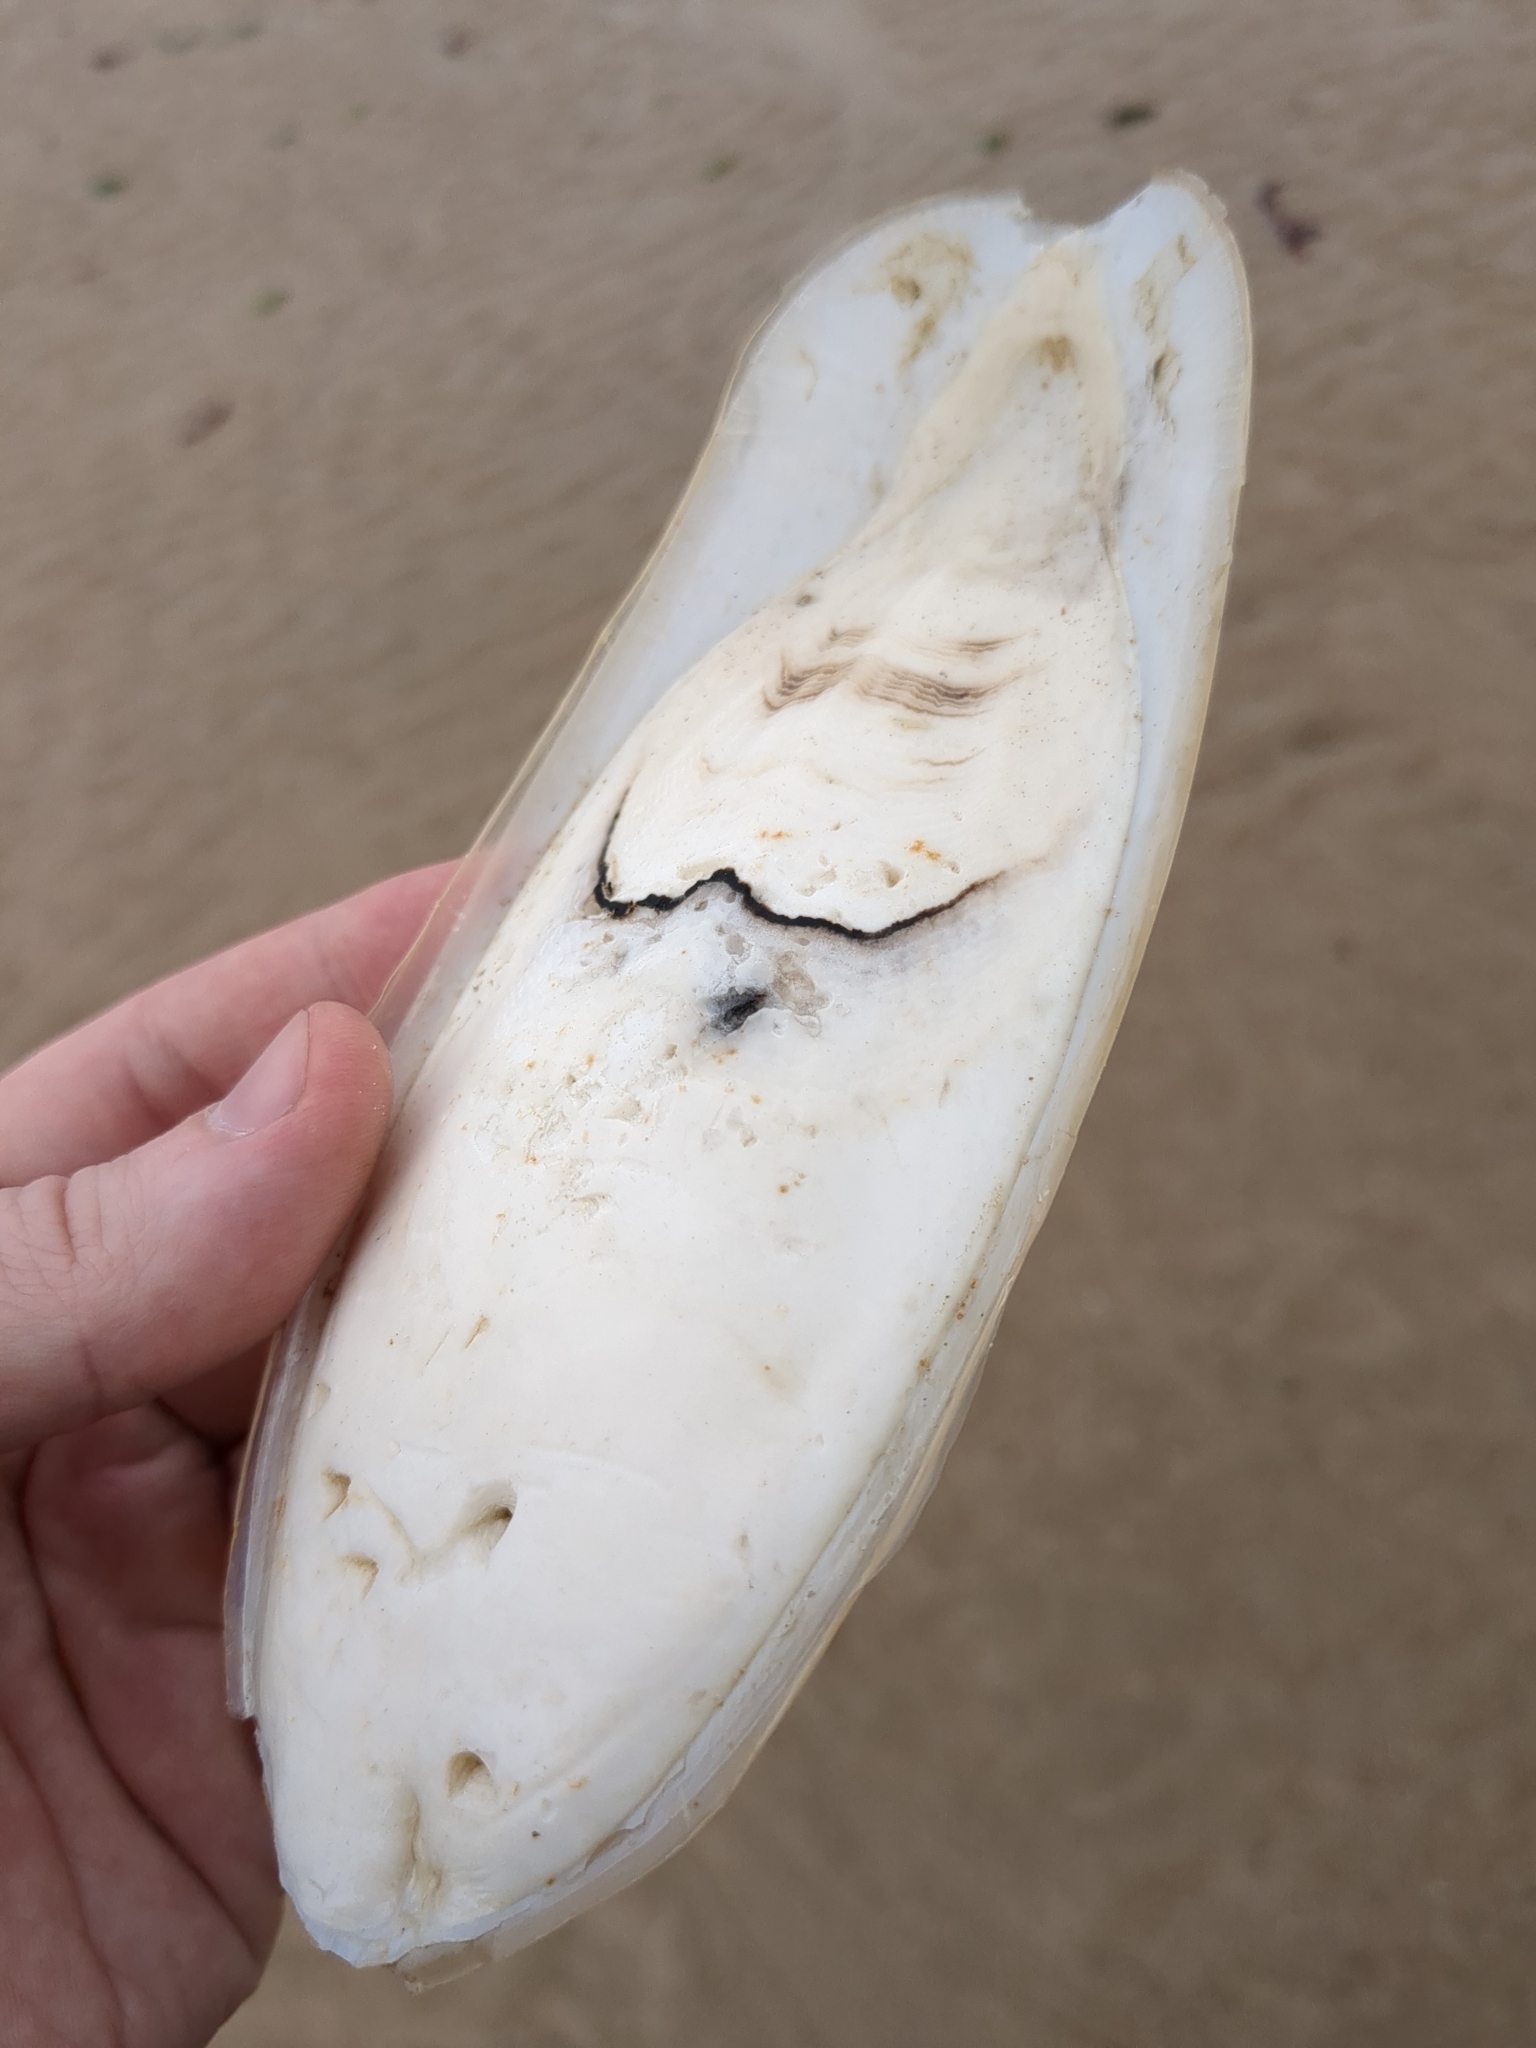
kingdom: Animalia
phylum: Mollusca
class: Cephalopoda
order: Sepiida
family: Sepiidae
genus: Sepia
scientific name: Sepia officinalis
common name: Common cuttlefish
